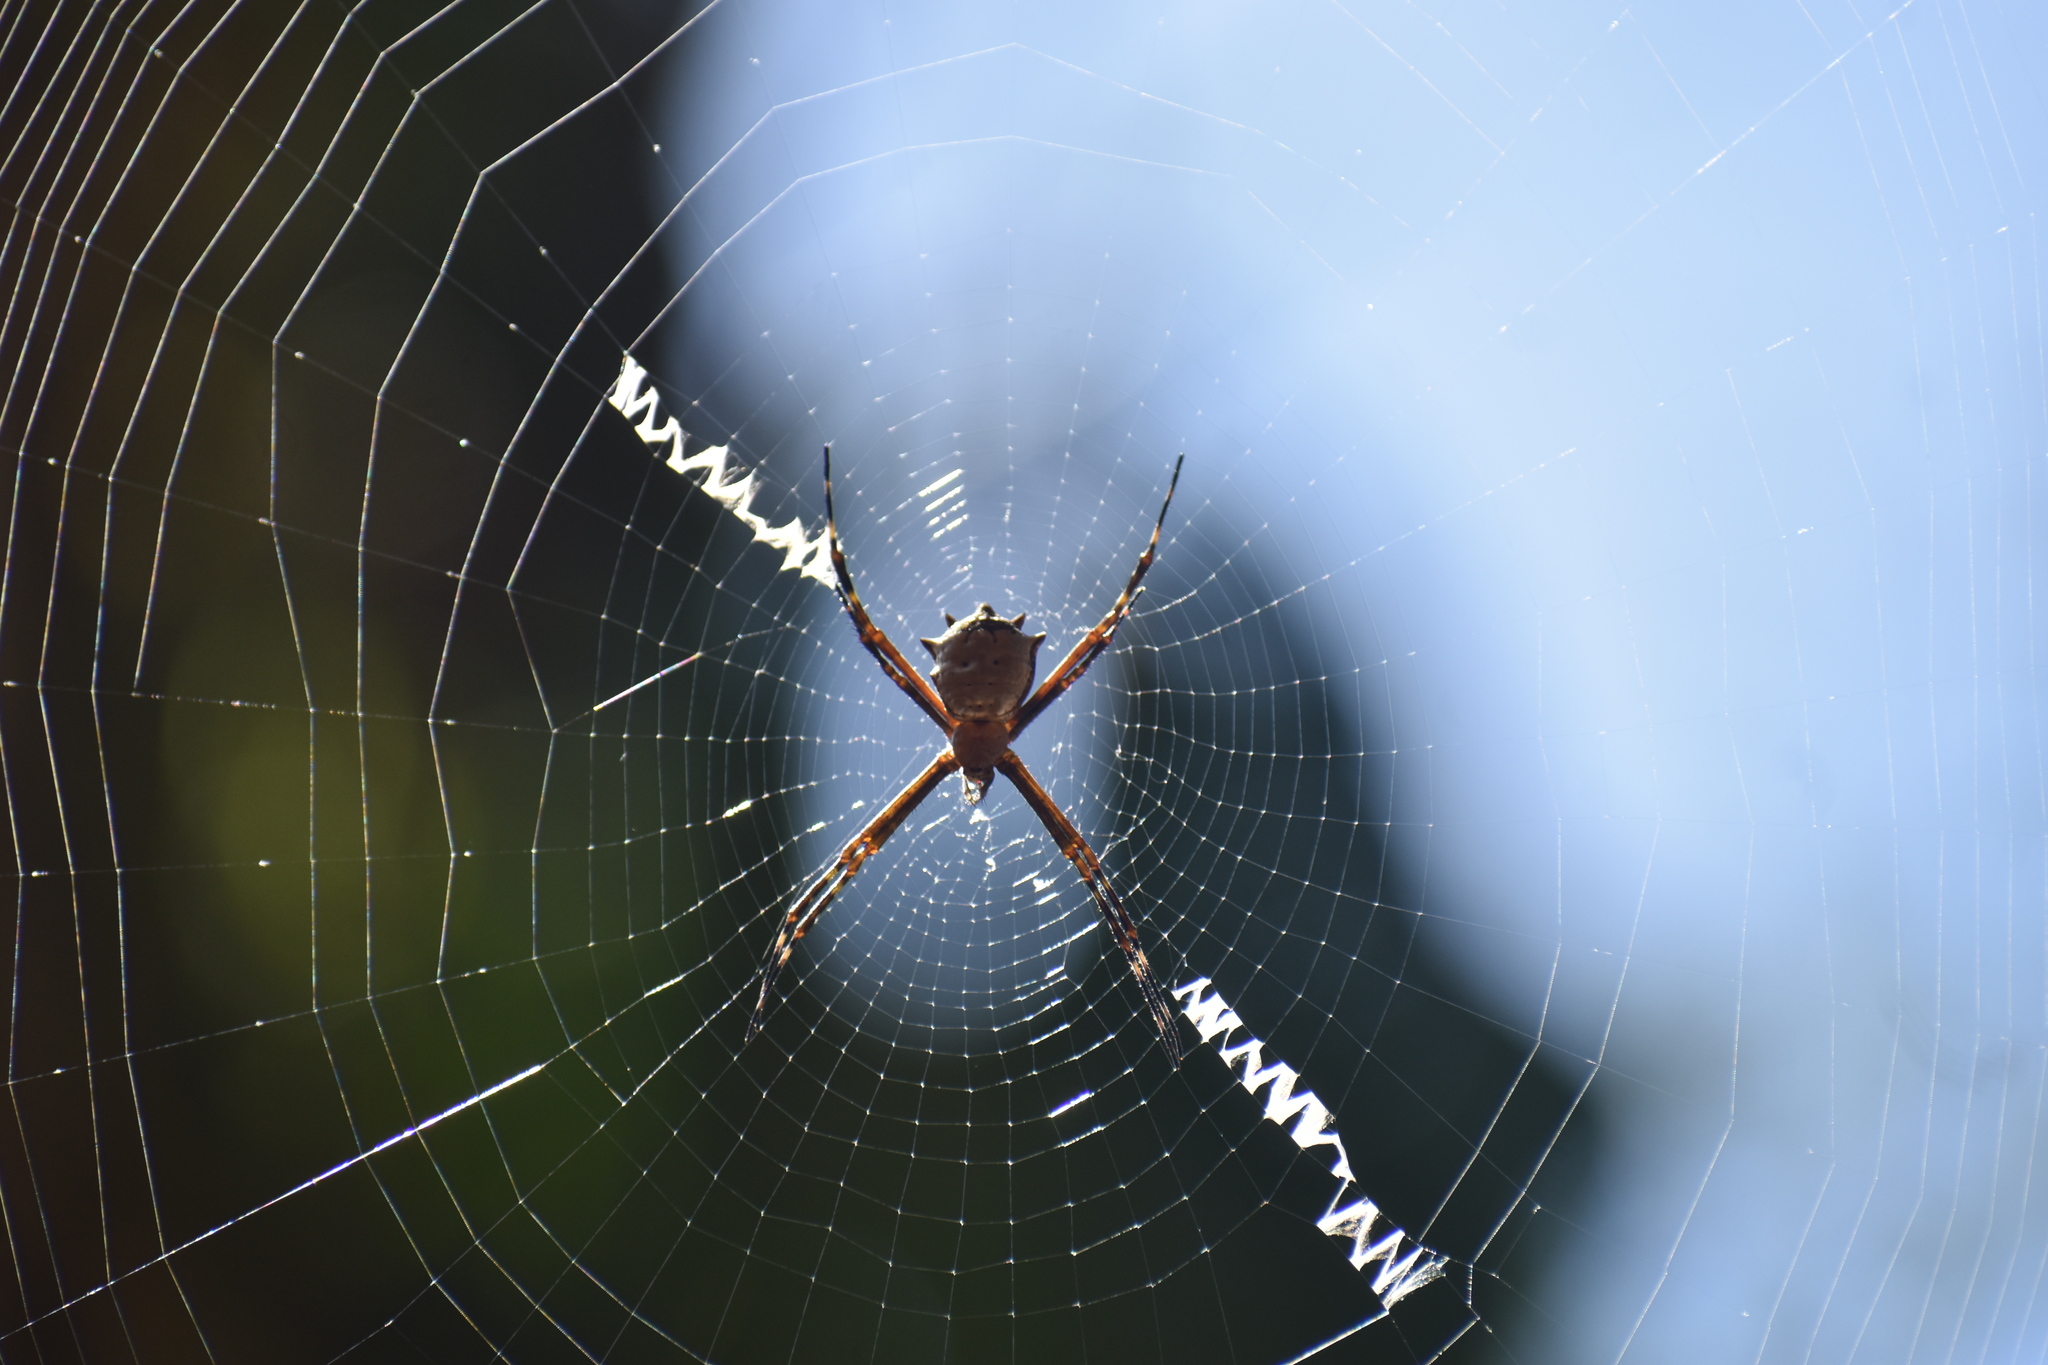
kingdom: Animalia
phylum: Arthropoda
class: Arachnida
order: Araneae
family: Araneidae
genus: Argiope
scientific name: Argiope submaronica
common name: Orb weavers
